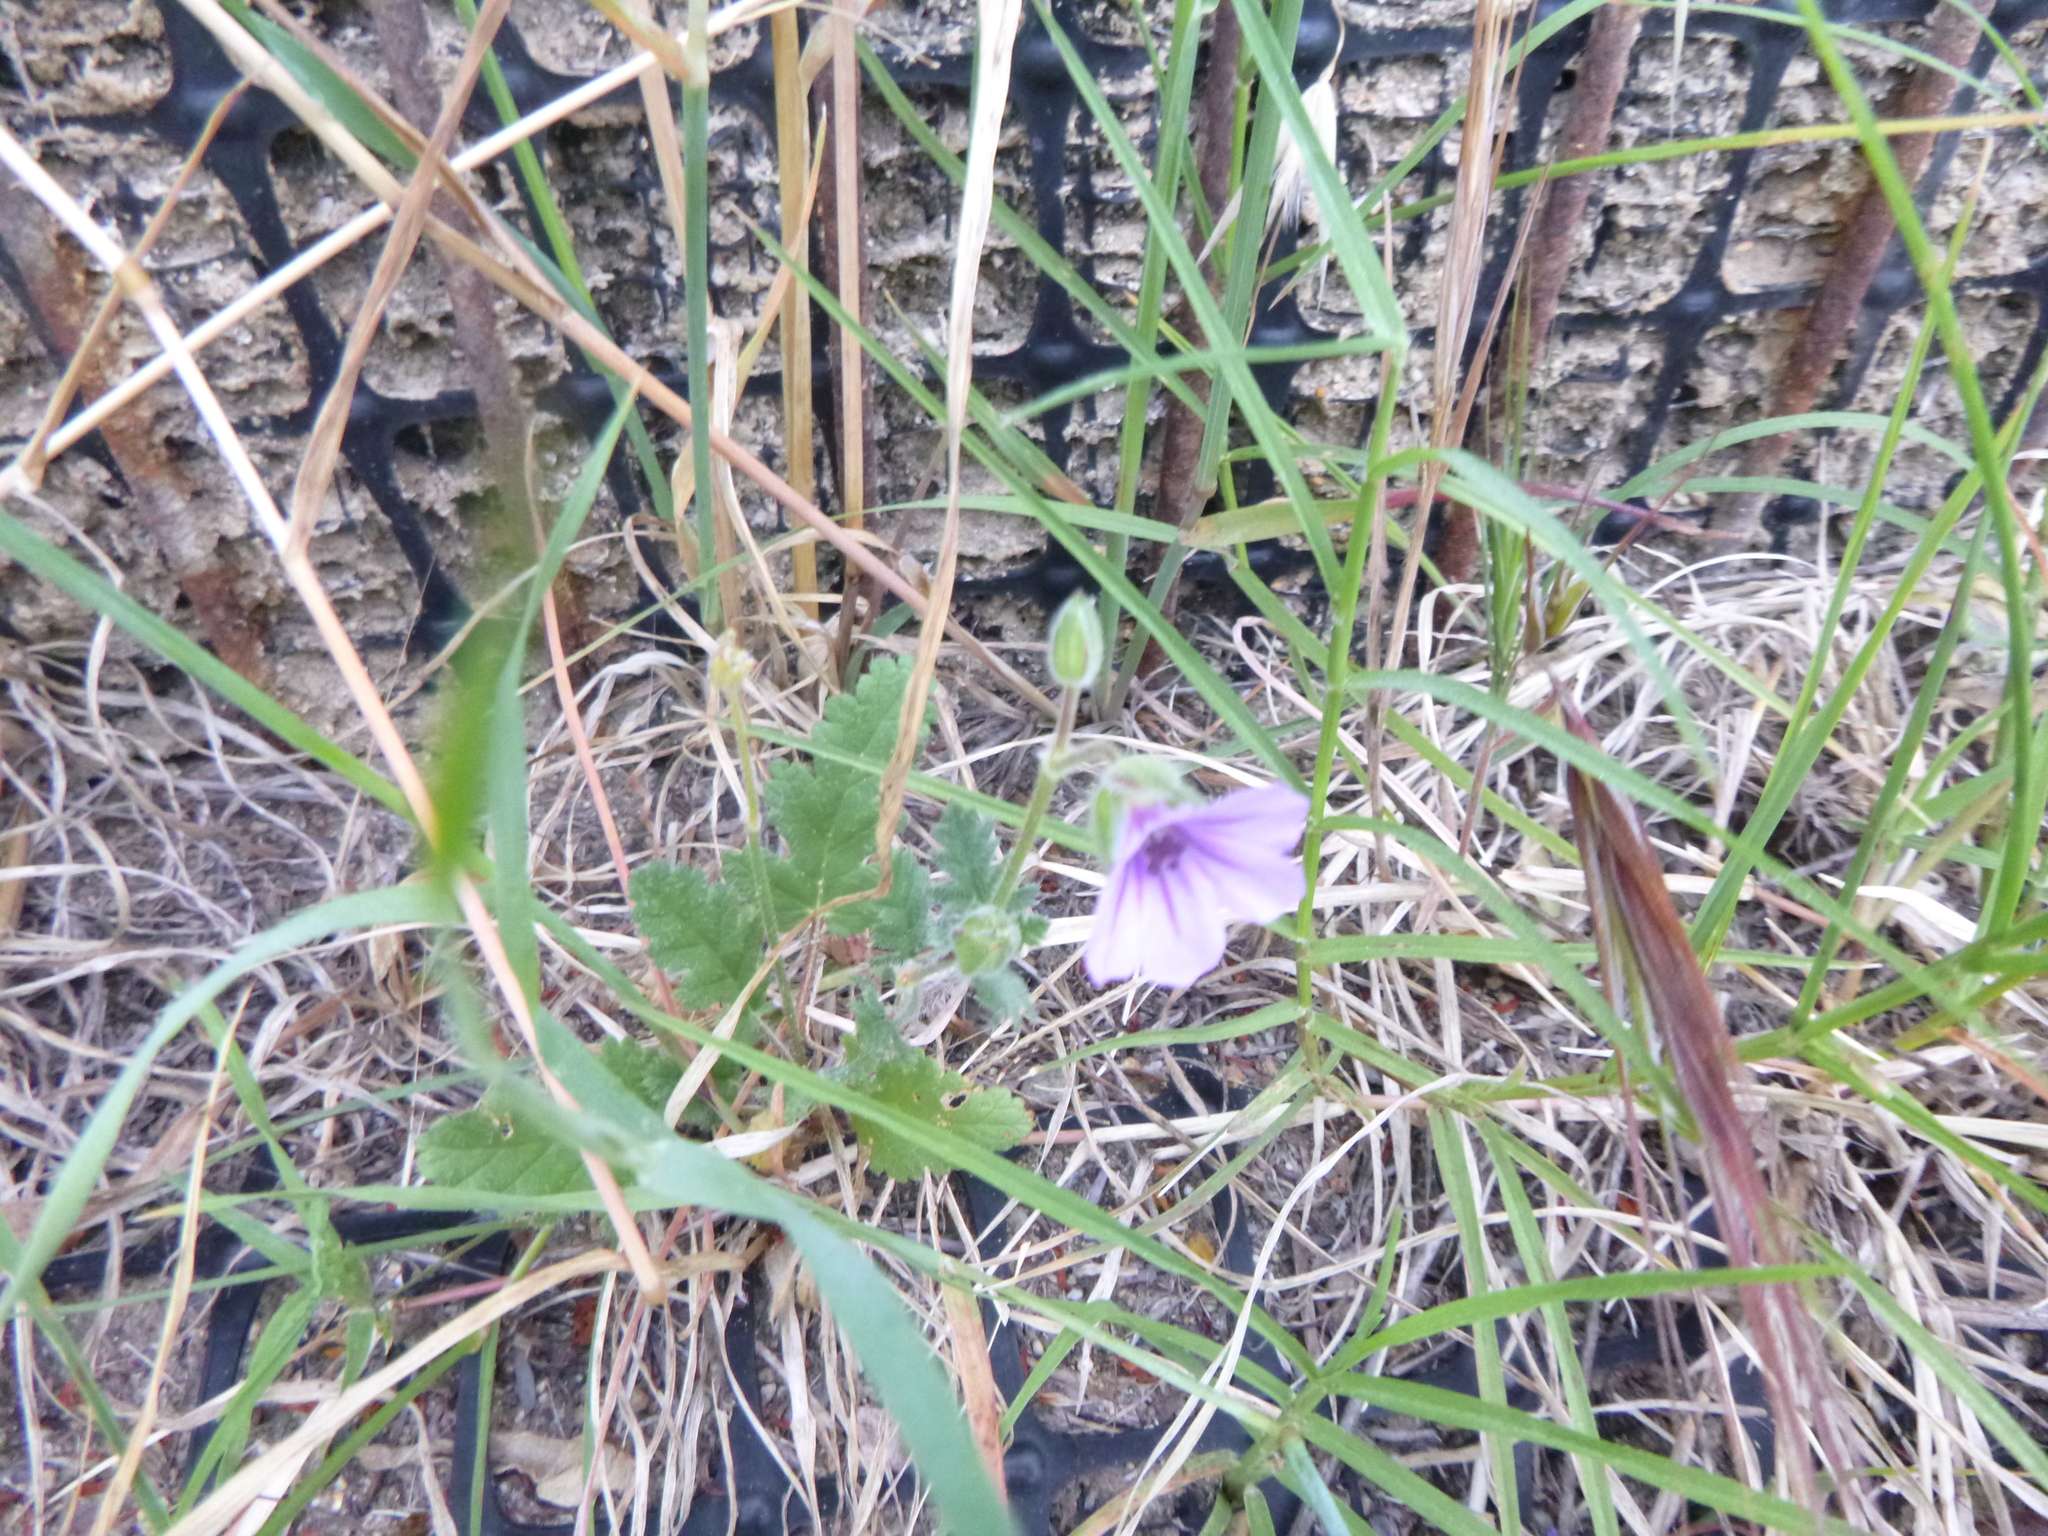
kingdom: Plantae
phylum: Tracheophyta
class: Magnoliopsida
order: Geraniales
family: Geraniaceae
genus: Erodium
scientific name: Erodium botrys
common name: Mediterranean stork's-bill
